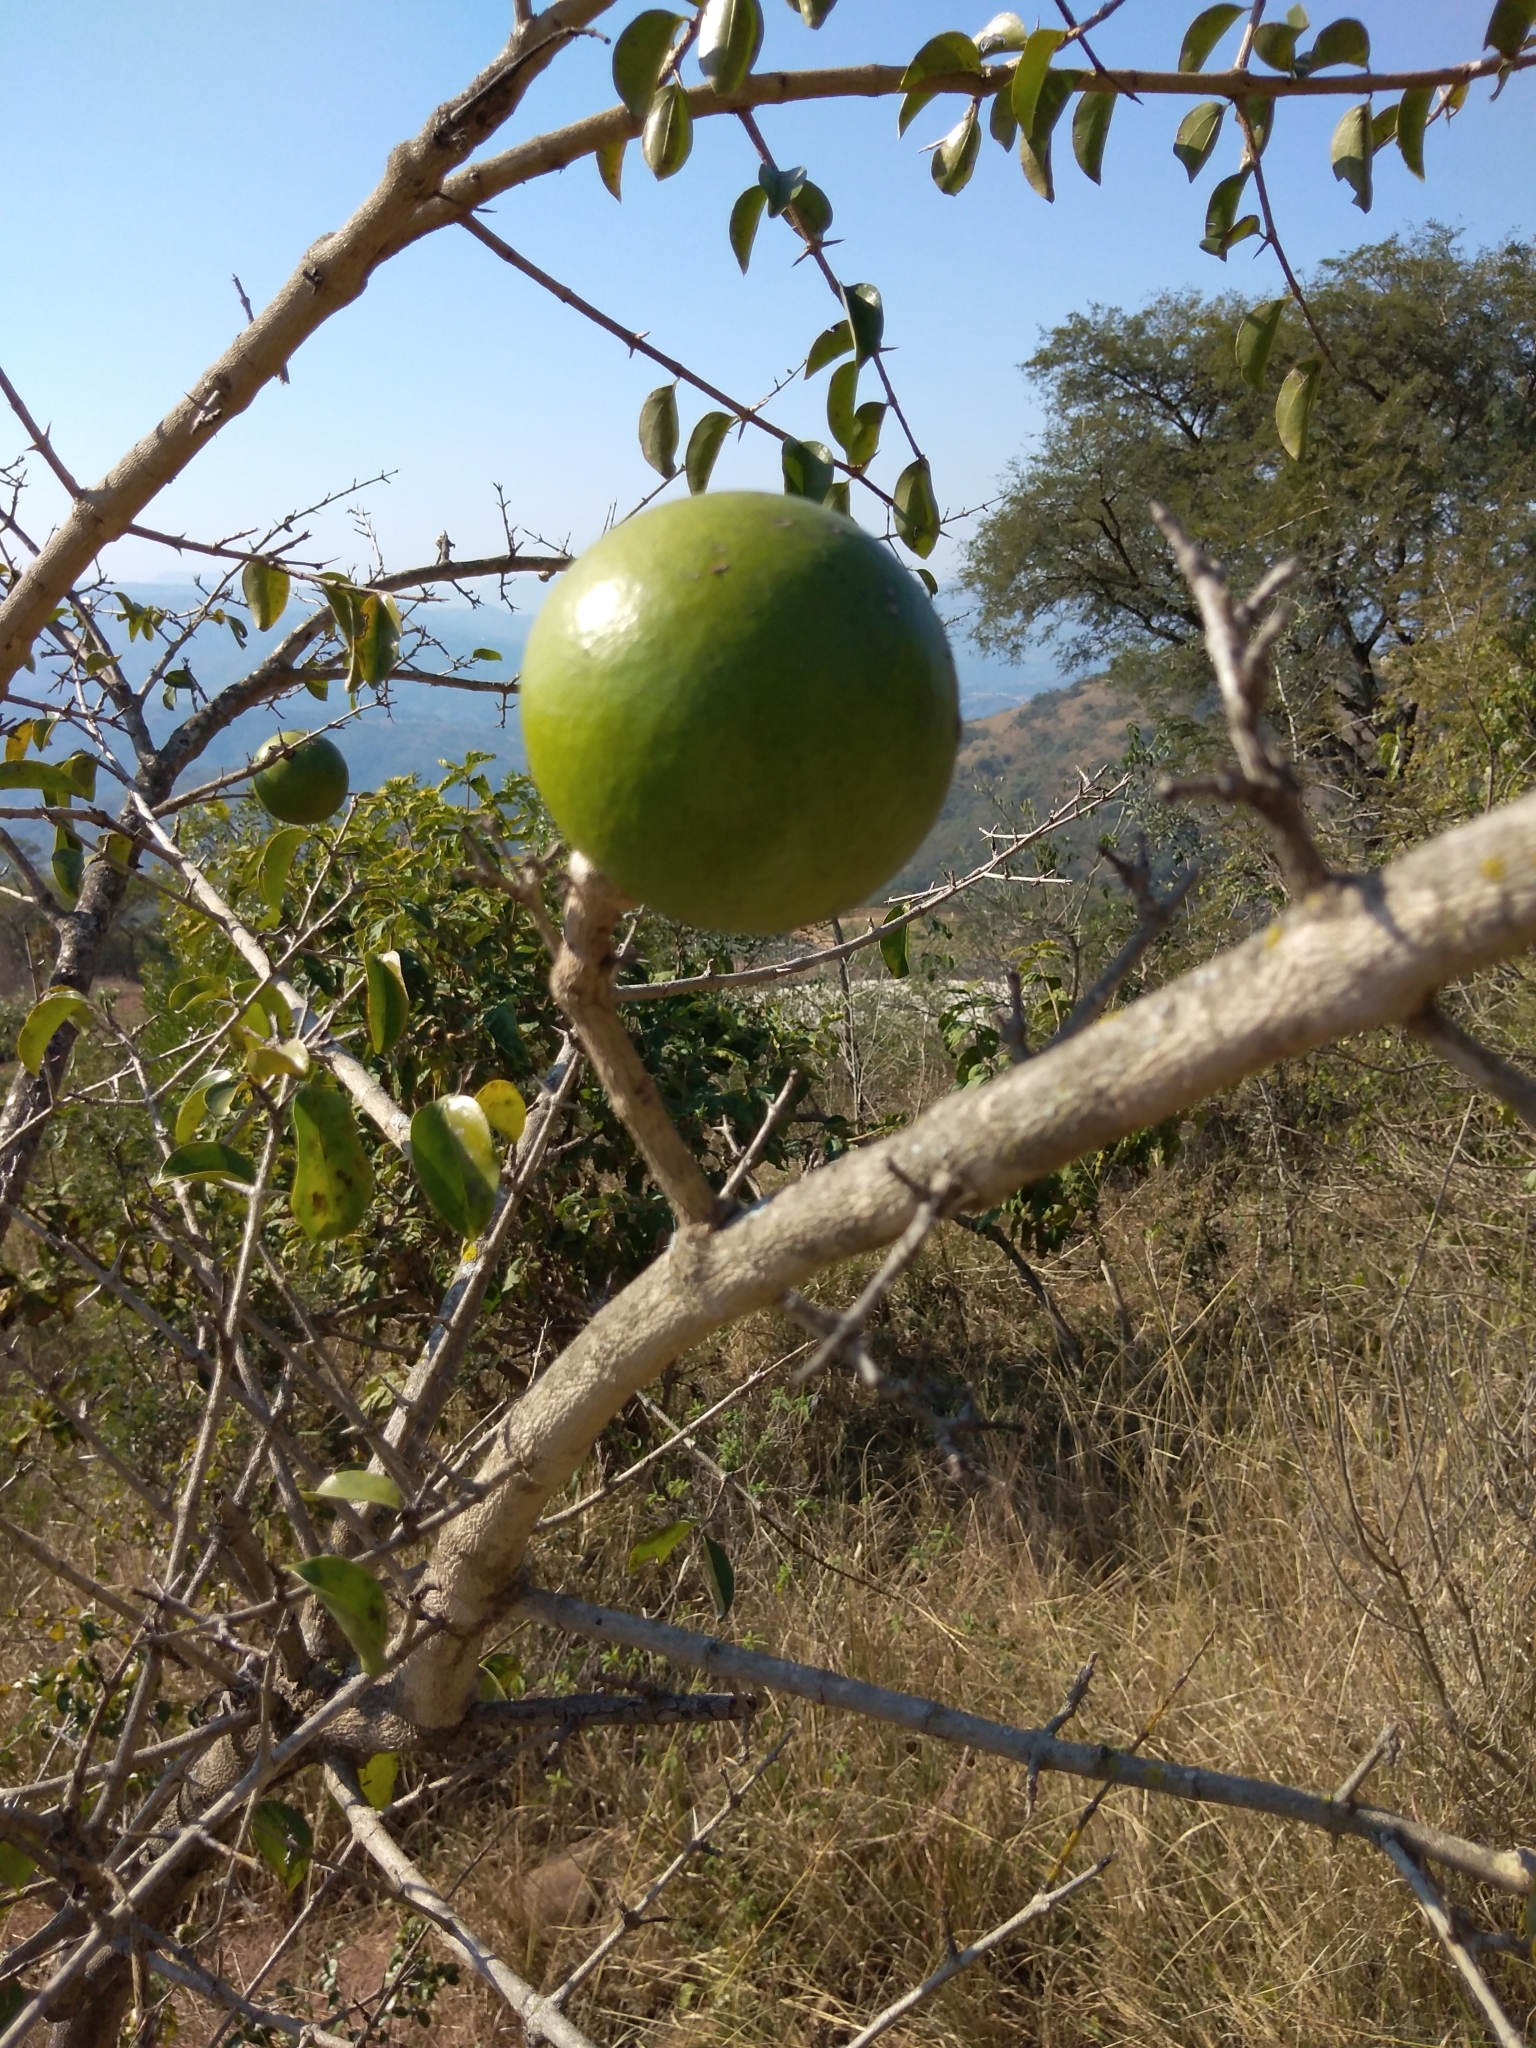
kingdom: Plantae
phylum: Tracheophyta
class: Magnoliopsida
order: Gentianales
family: Loganiaceae
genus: Strychnos
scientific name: Strychnos spinosa
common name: Natal orange
